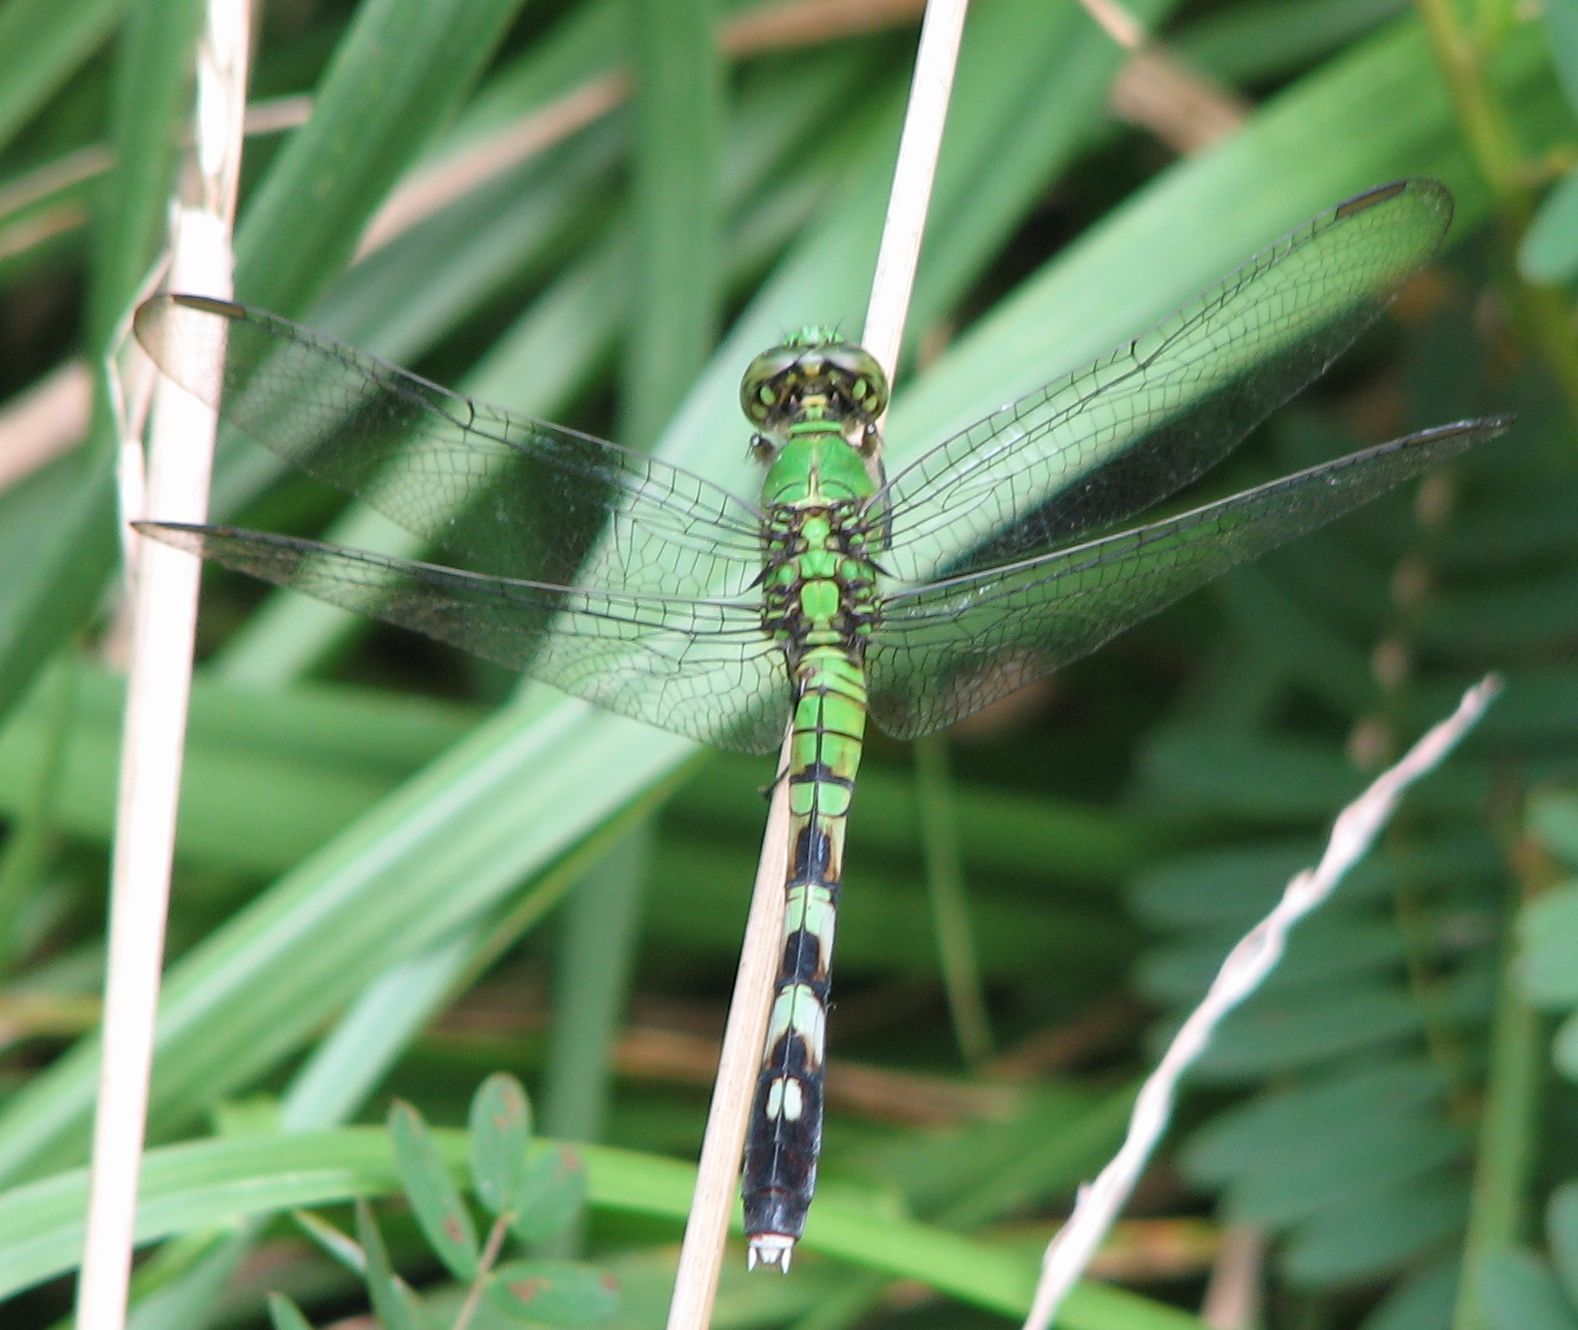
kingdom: Animalia
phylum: Arthropoda
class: Insecta
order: Odonata
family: Libellulidae
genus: Erythemis
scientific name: Erythemis simplicicollis
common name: Eastern pondhawk
